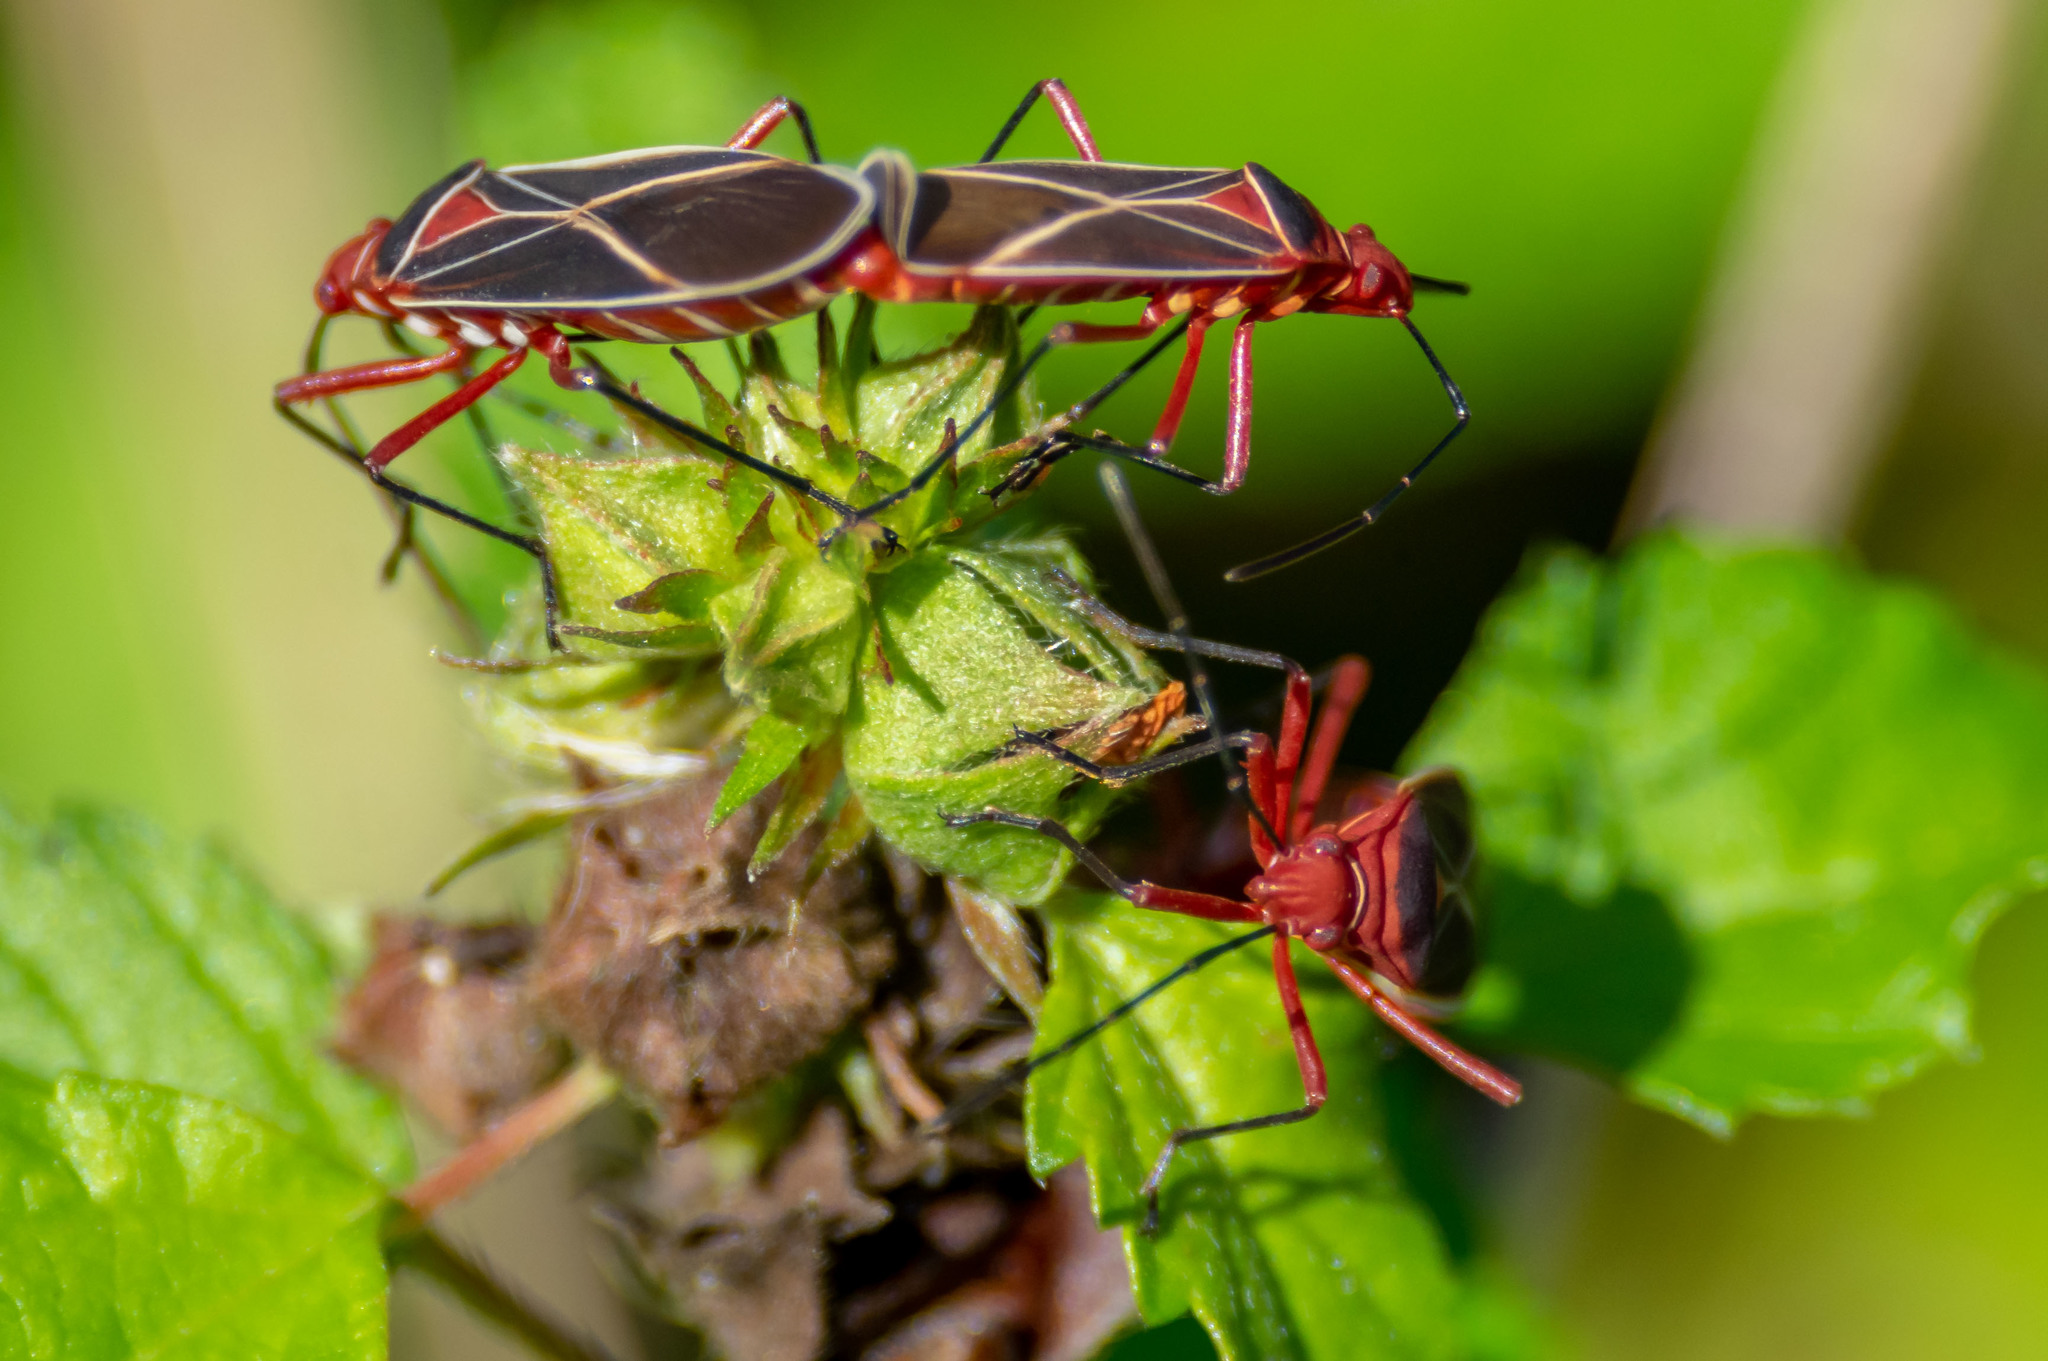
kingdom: Animalia
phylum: Arthropoda
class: Insecta
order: Hemiptera
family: Pyrrhocoridae
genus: Dysdercus
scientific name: Dysdercus suturellus
